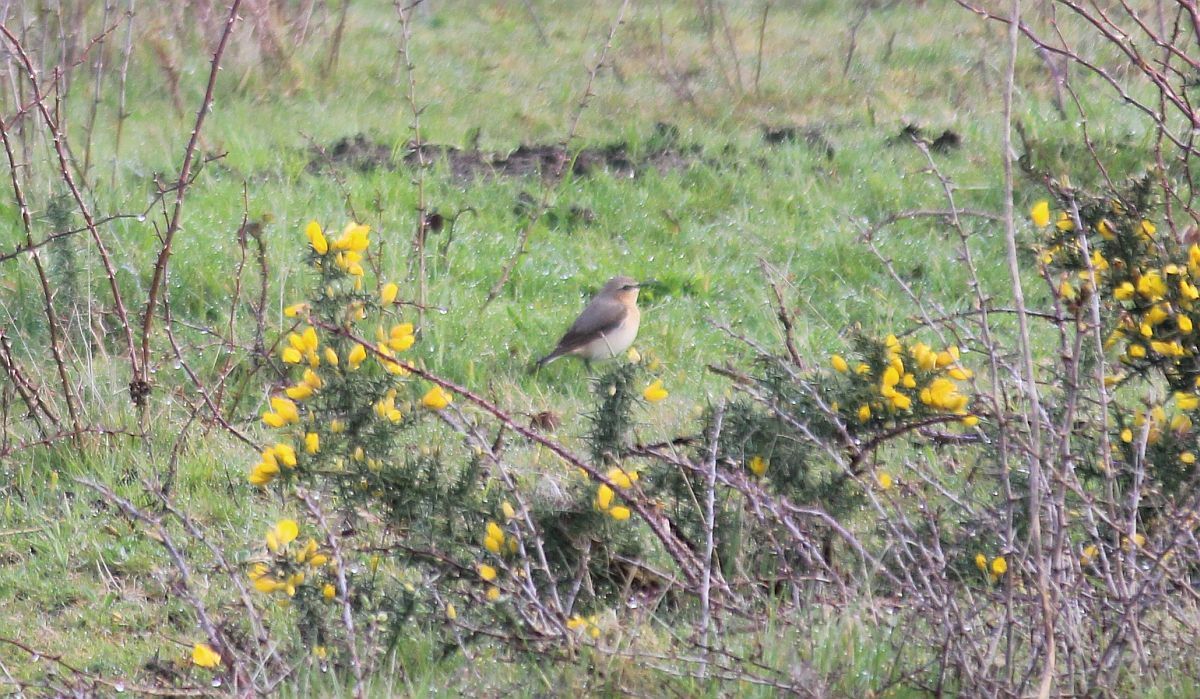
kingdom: Animalia
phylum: Chordata
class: Aves
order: Passeriformes
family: Muscicapidae
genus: Oenanthe
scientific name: Oenanthe oenanthe
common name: Northern wheatear
